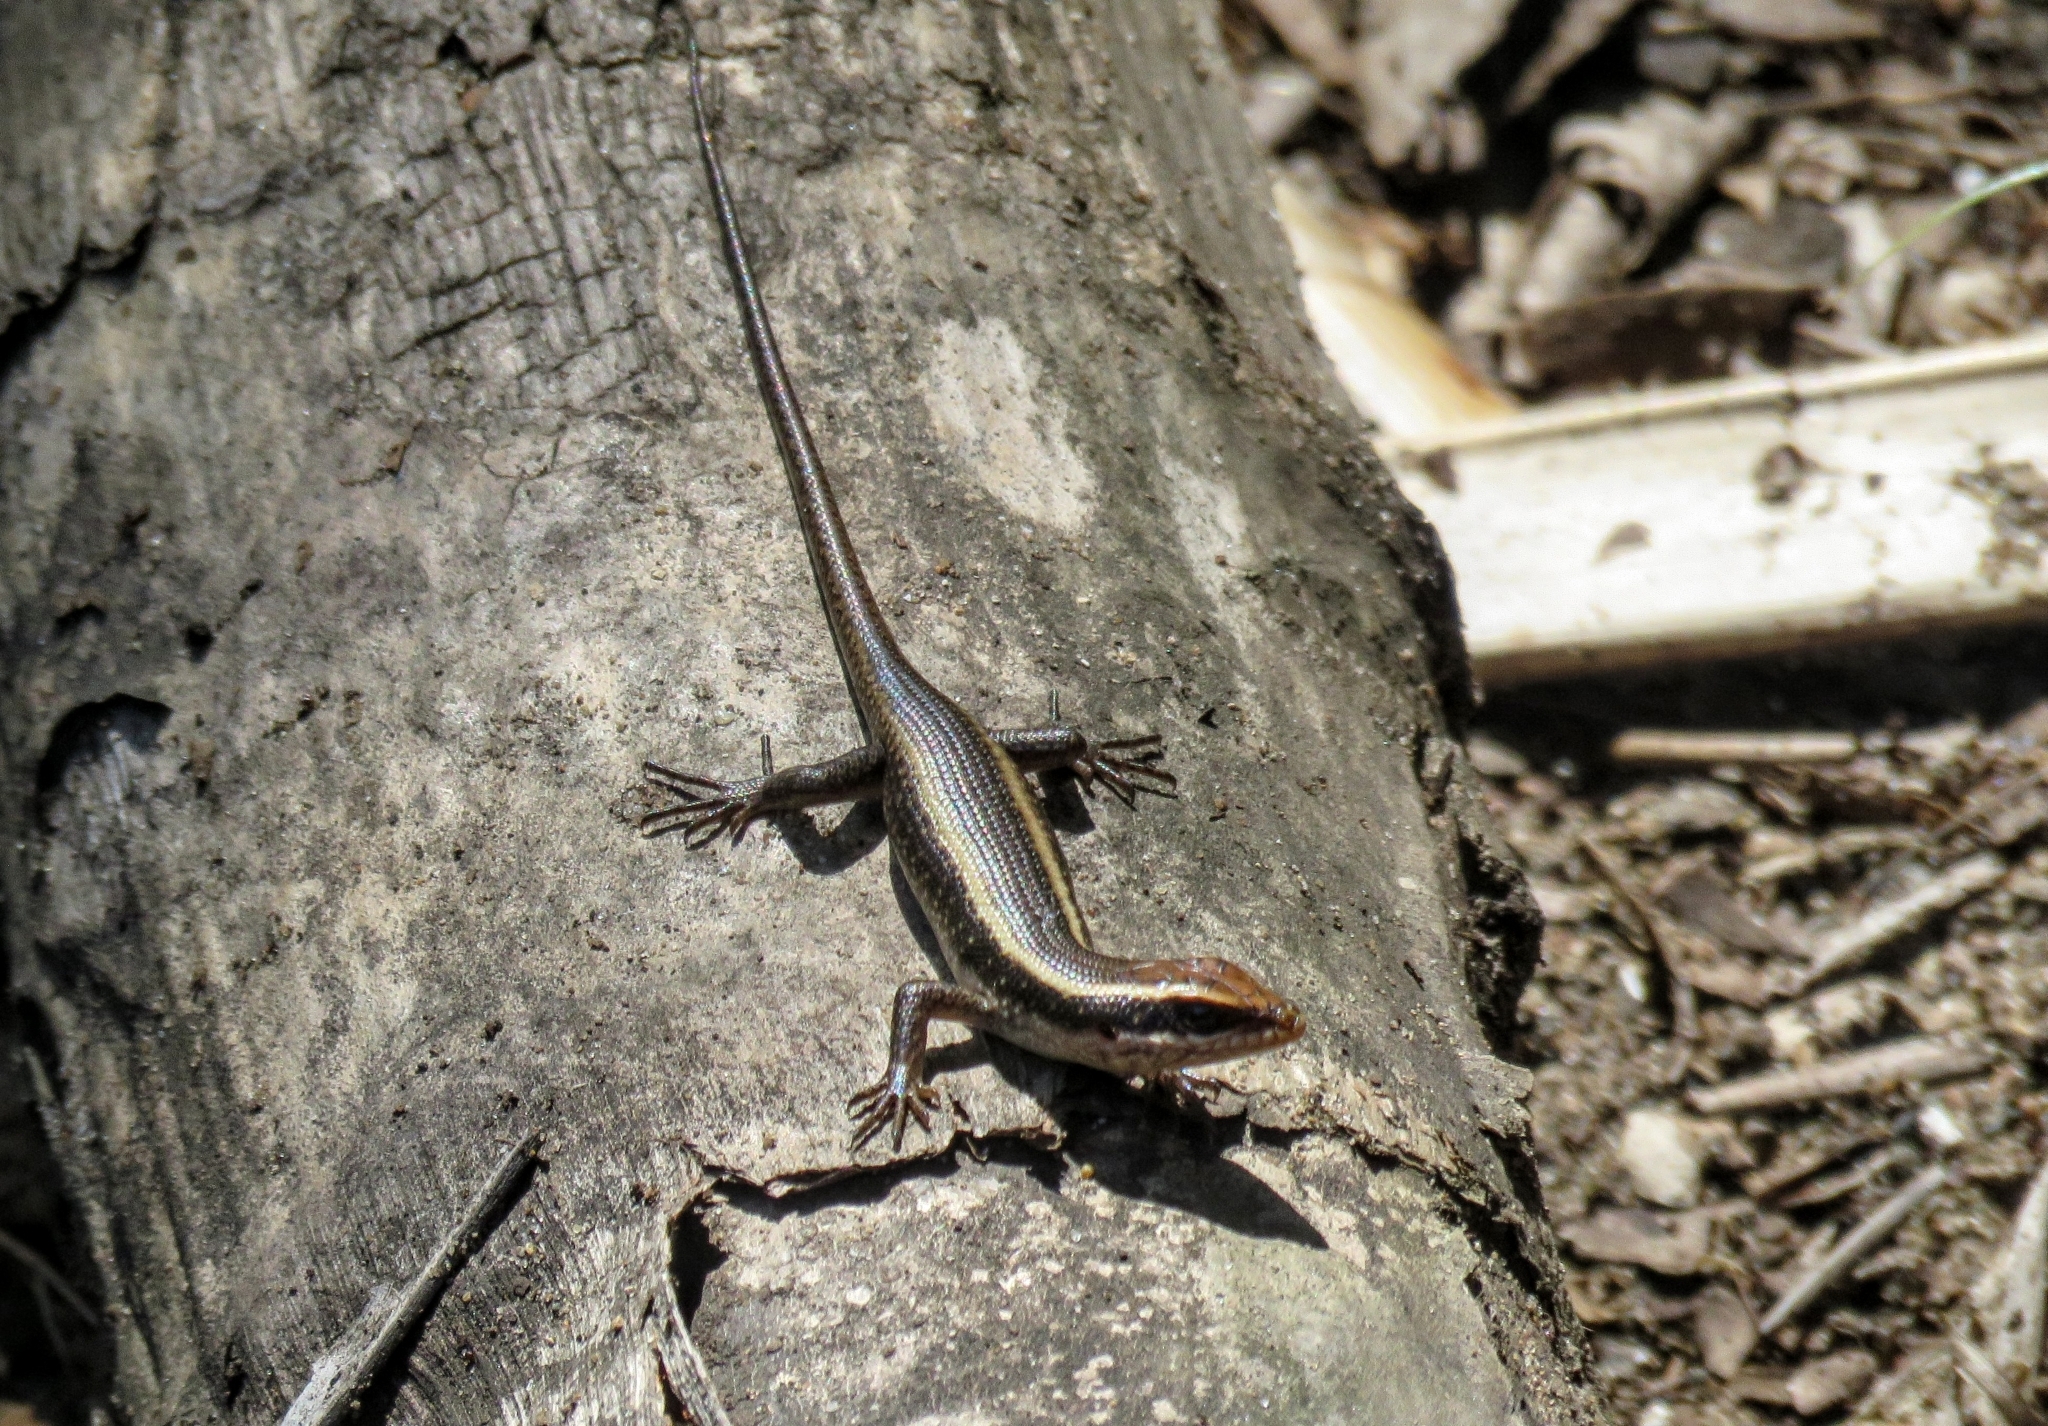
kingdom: Animalia
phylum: Chordata
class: Squamata
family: Scincidae
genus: Trachylepis
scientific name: Trachylepis striata
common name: African striped mabuya
